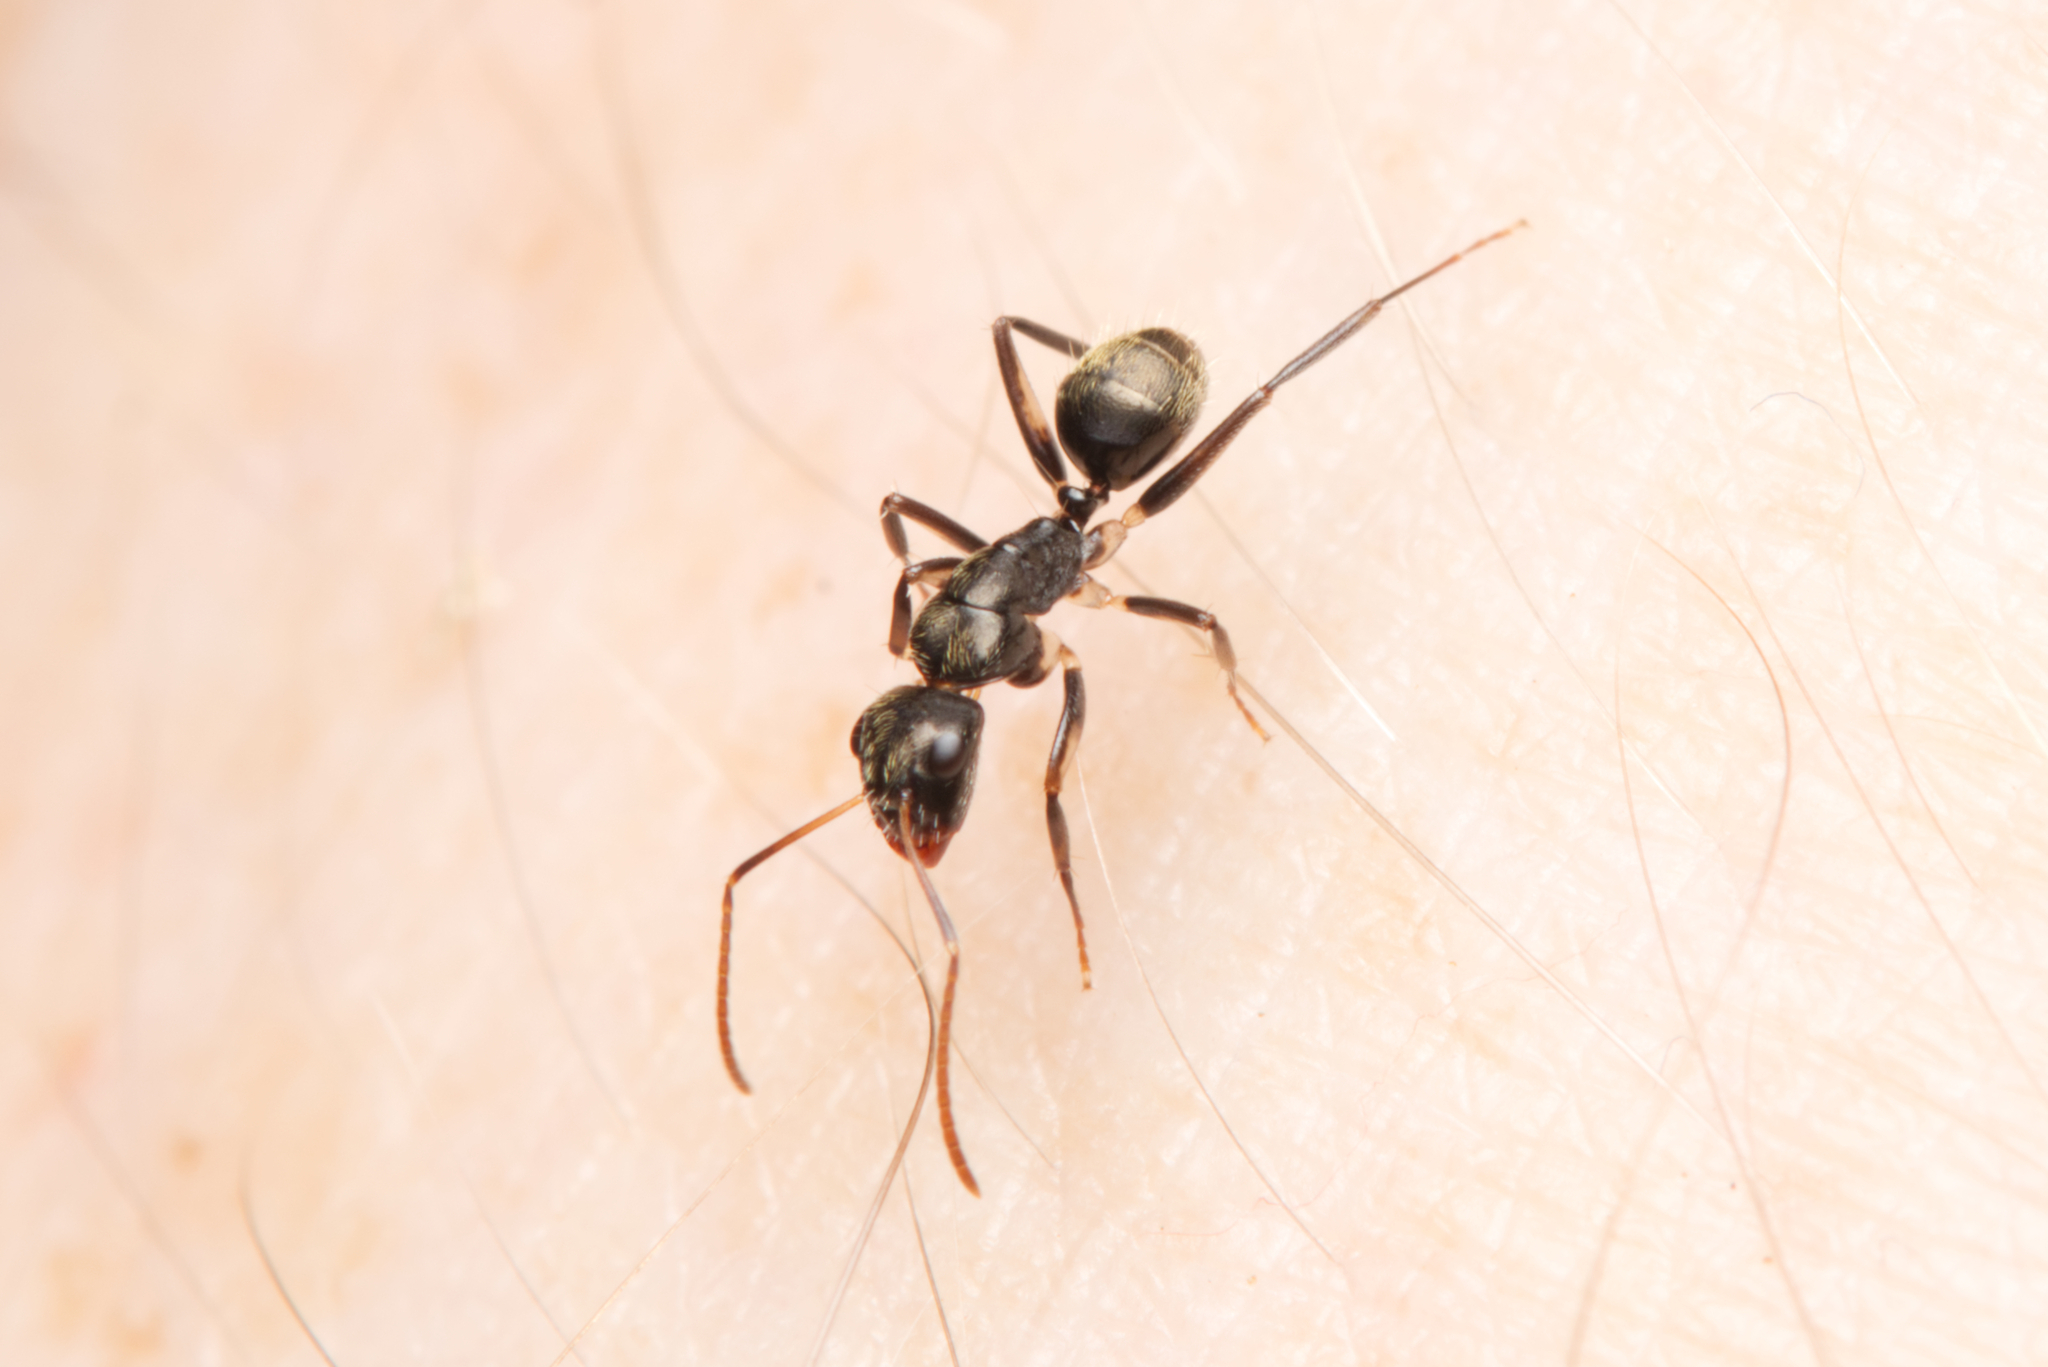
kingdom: Animalia
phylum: Arthropoda
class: Insecta
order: Hymenoptera
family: Formicidae
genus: Camponotus
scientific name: Camponotus froggatti
